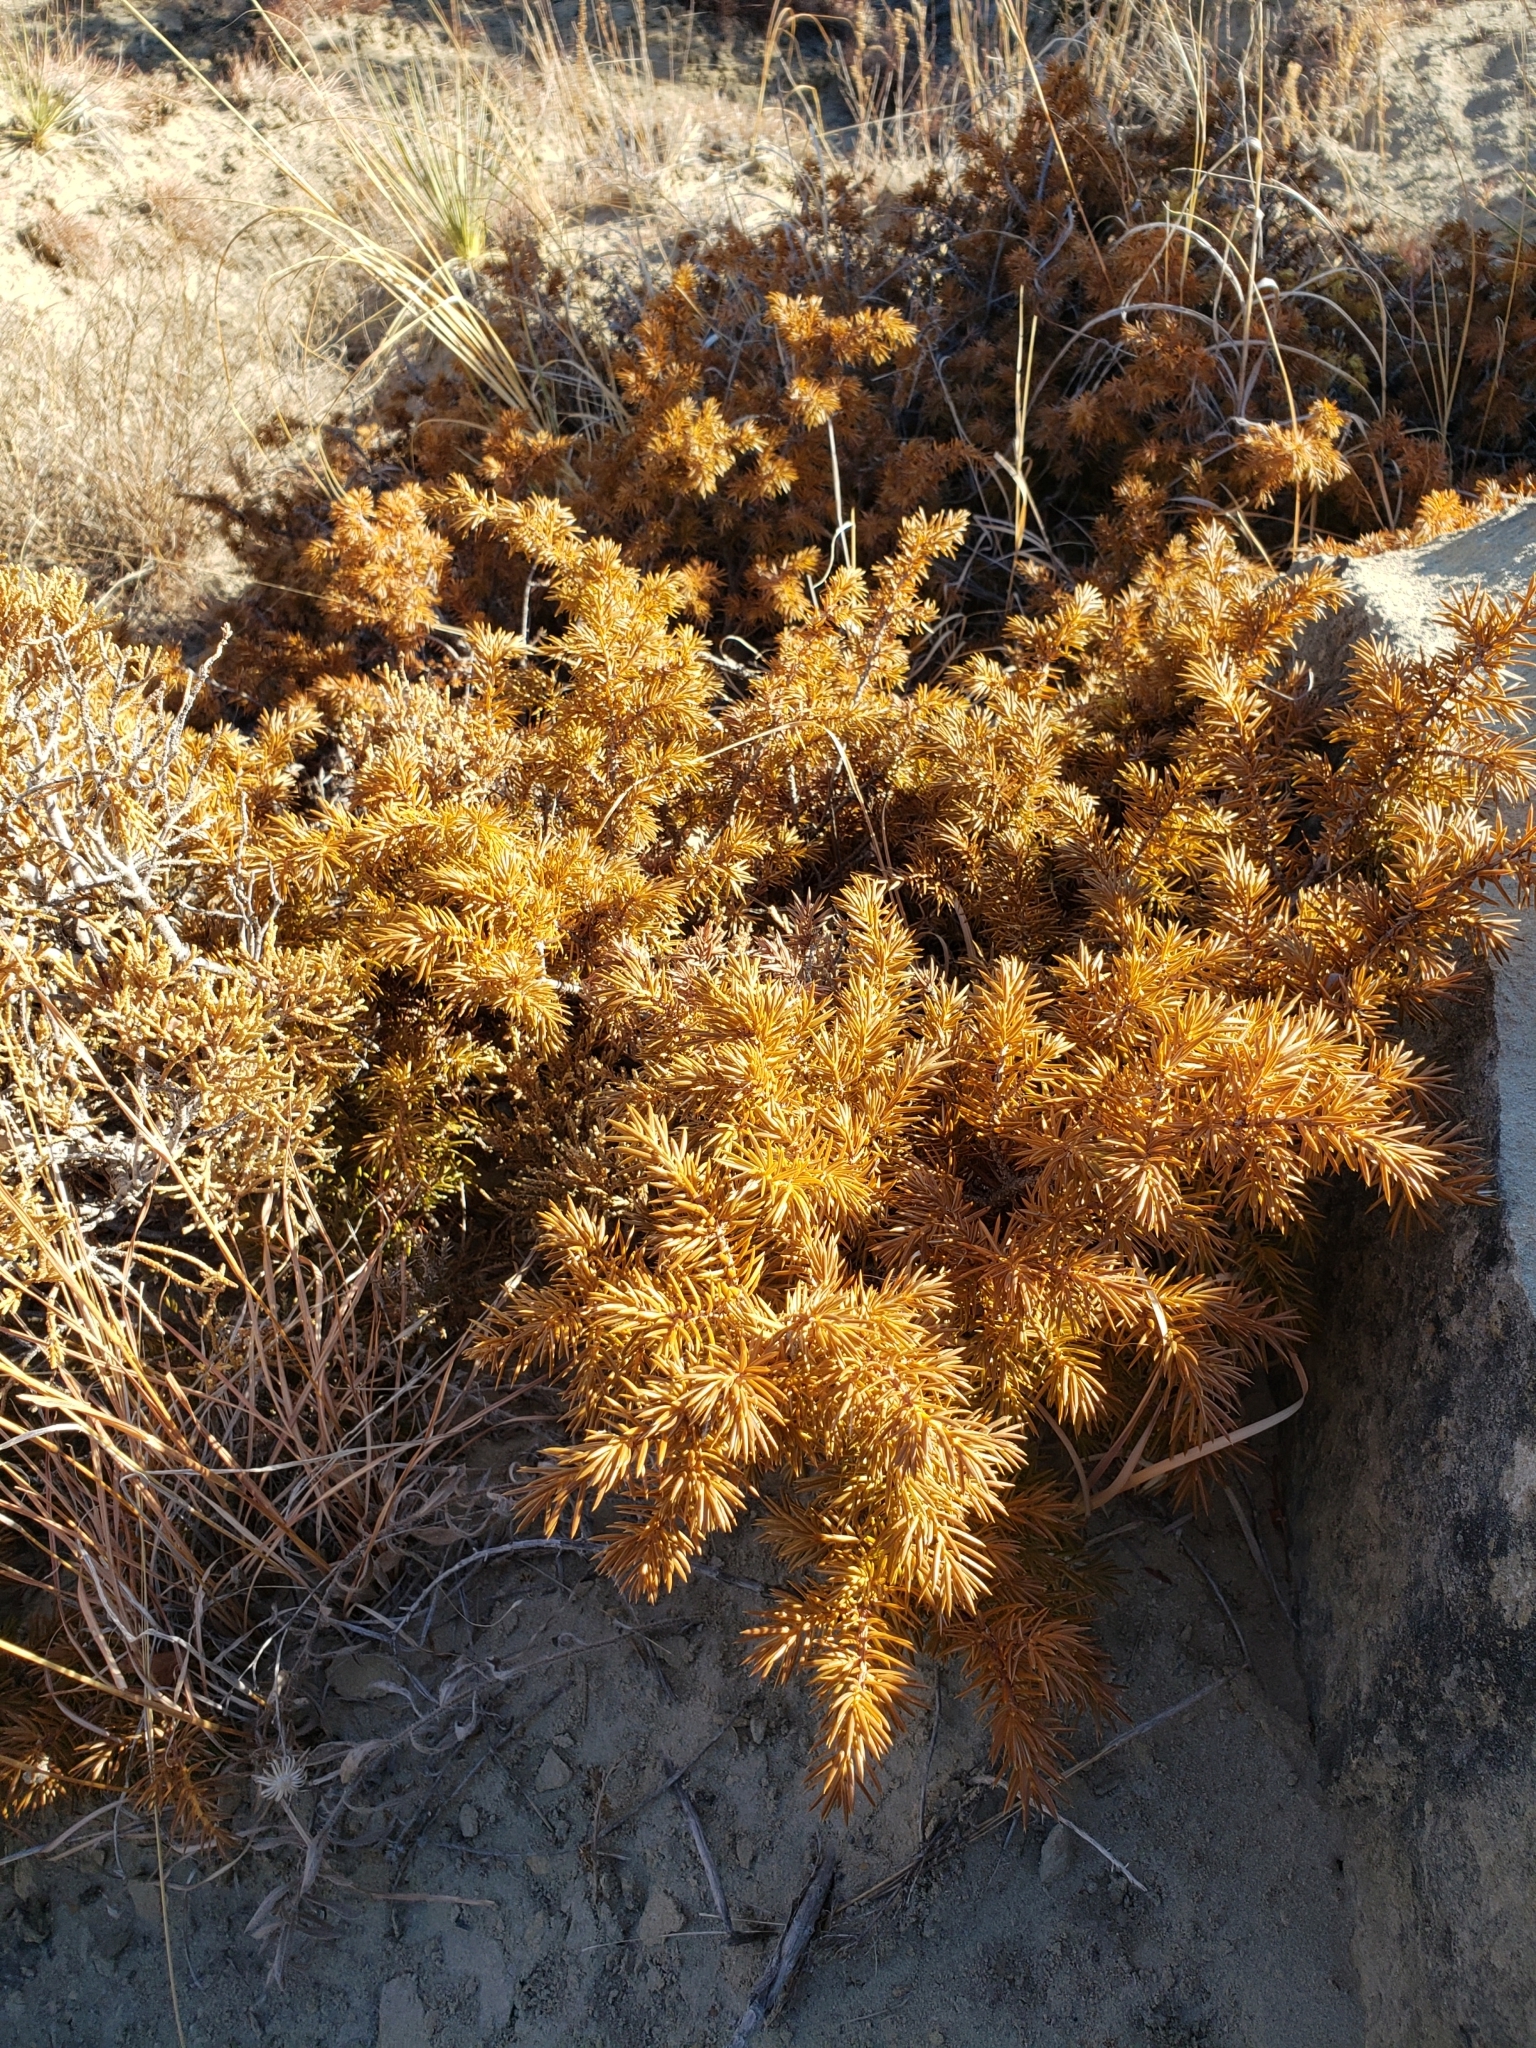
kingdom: Plantae
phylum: Tracheophyta
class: Pinopsida
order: Pinales
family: Cupressaceae
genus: Juniperus
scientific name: Juniperus communis
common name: Common juniper
